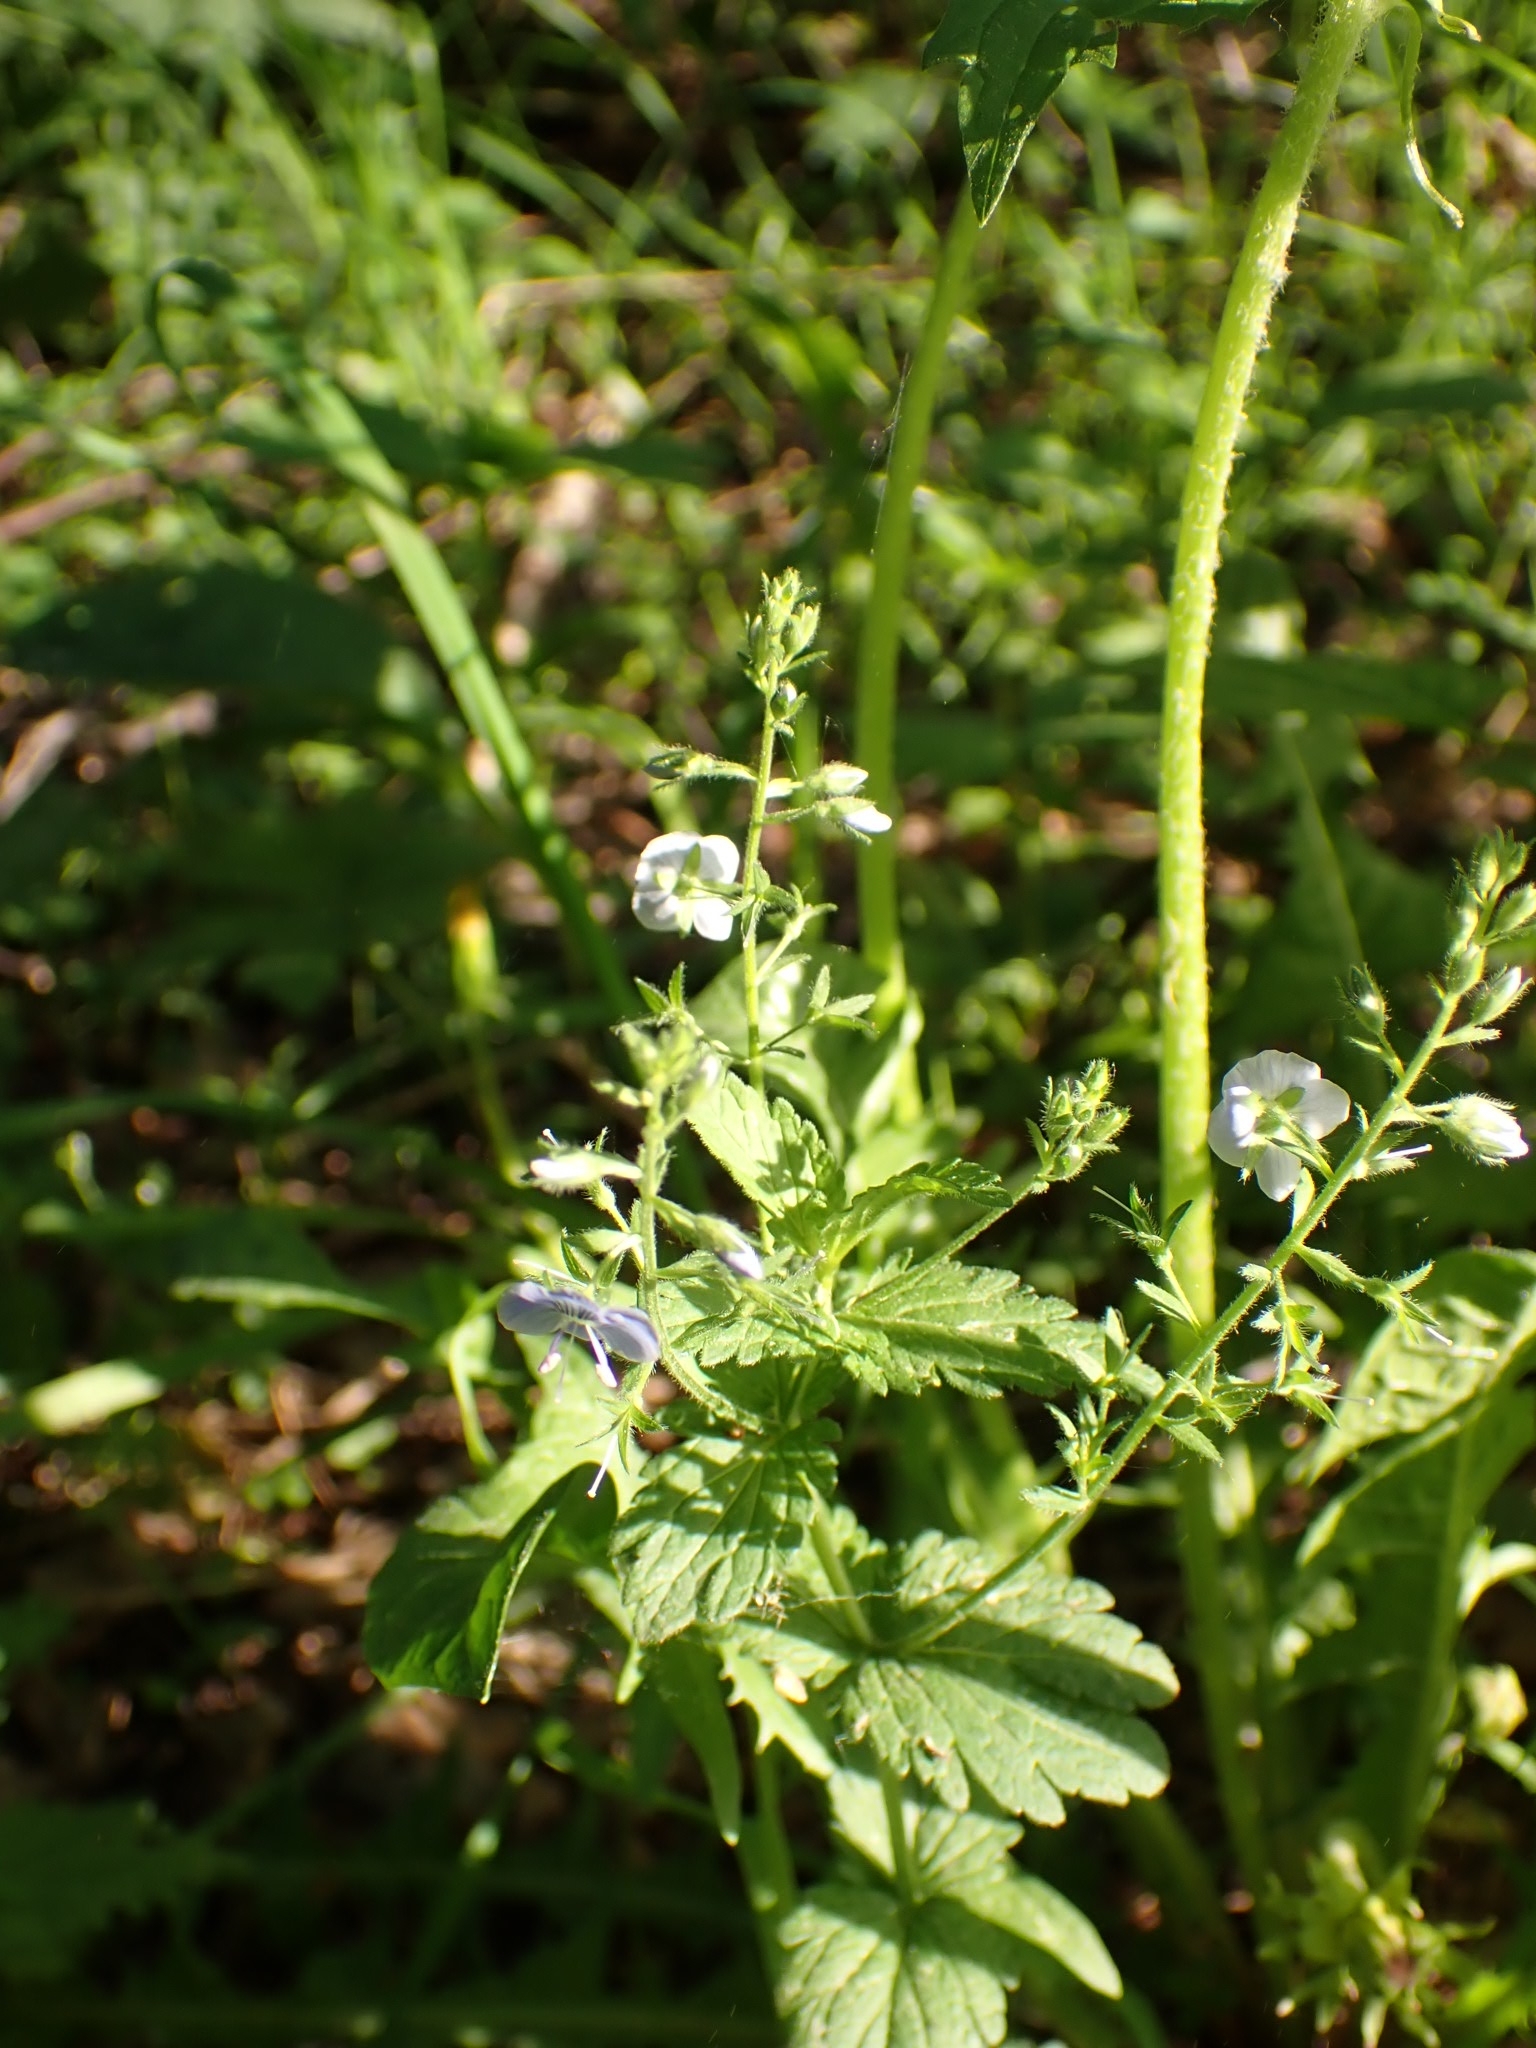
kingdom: Plantae
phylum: Tracheophyta
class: Magnoliopsida
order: Lamiales
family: Plantaginaceae
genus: Veronica
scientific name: Veronica chamaedrys
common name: Germander speedwell
